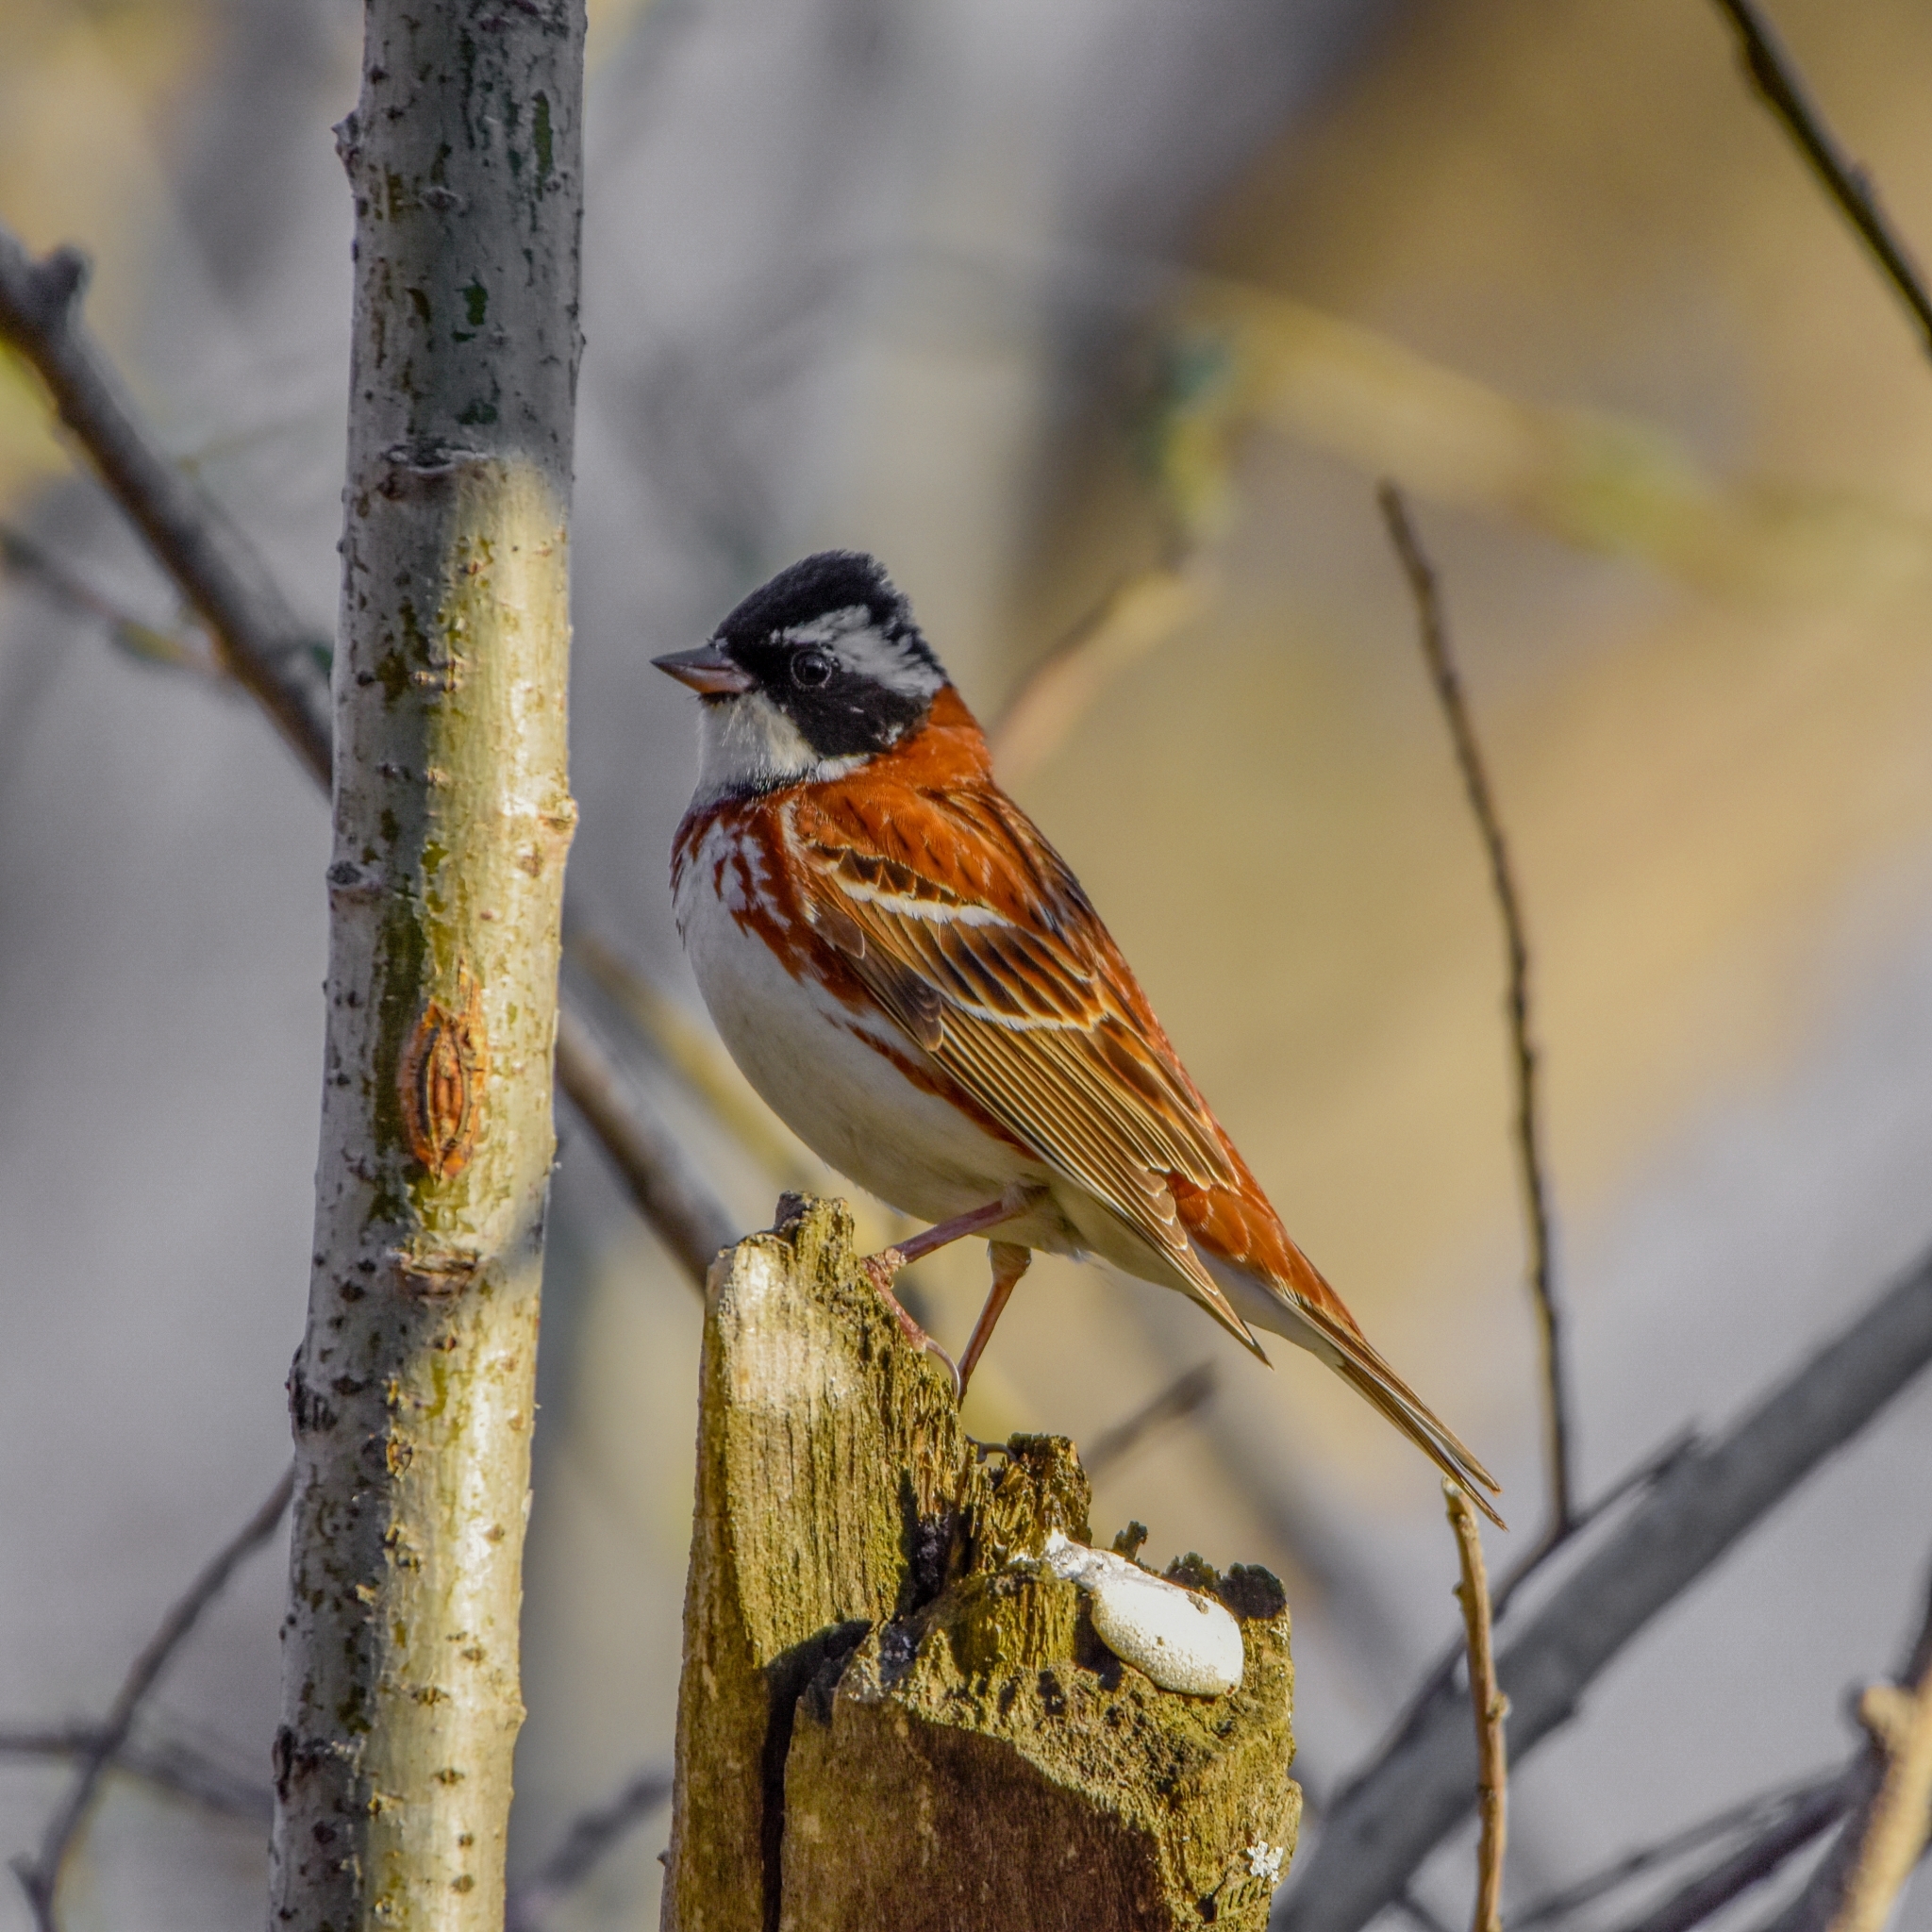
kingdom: Animalia
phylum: Chordata
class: Aves
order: Passeriformes
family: Emberizidae
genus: Emberiza
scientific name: Emberiza rustica
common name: Rustic bunting
